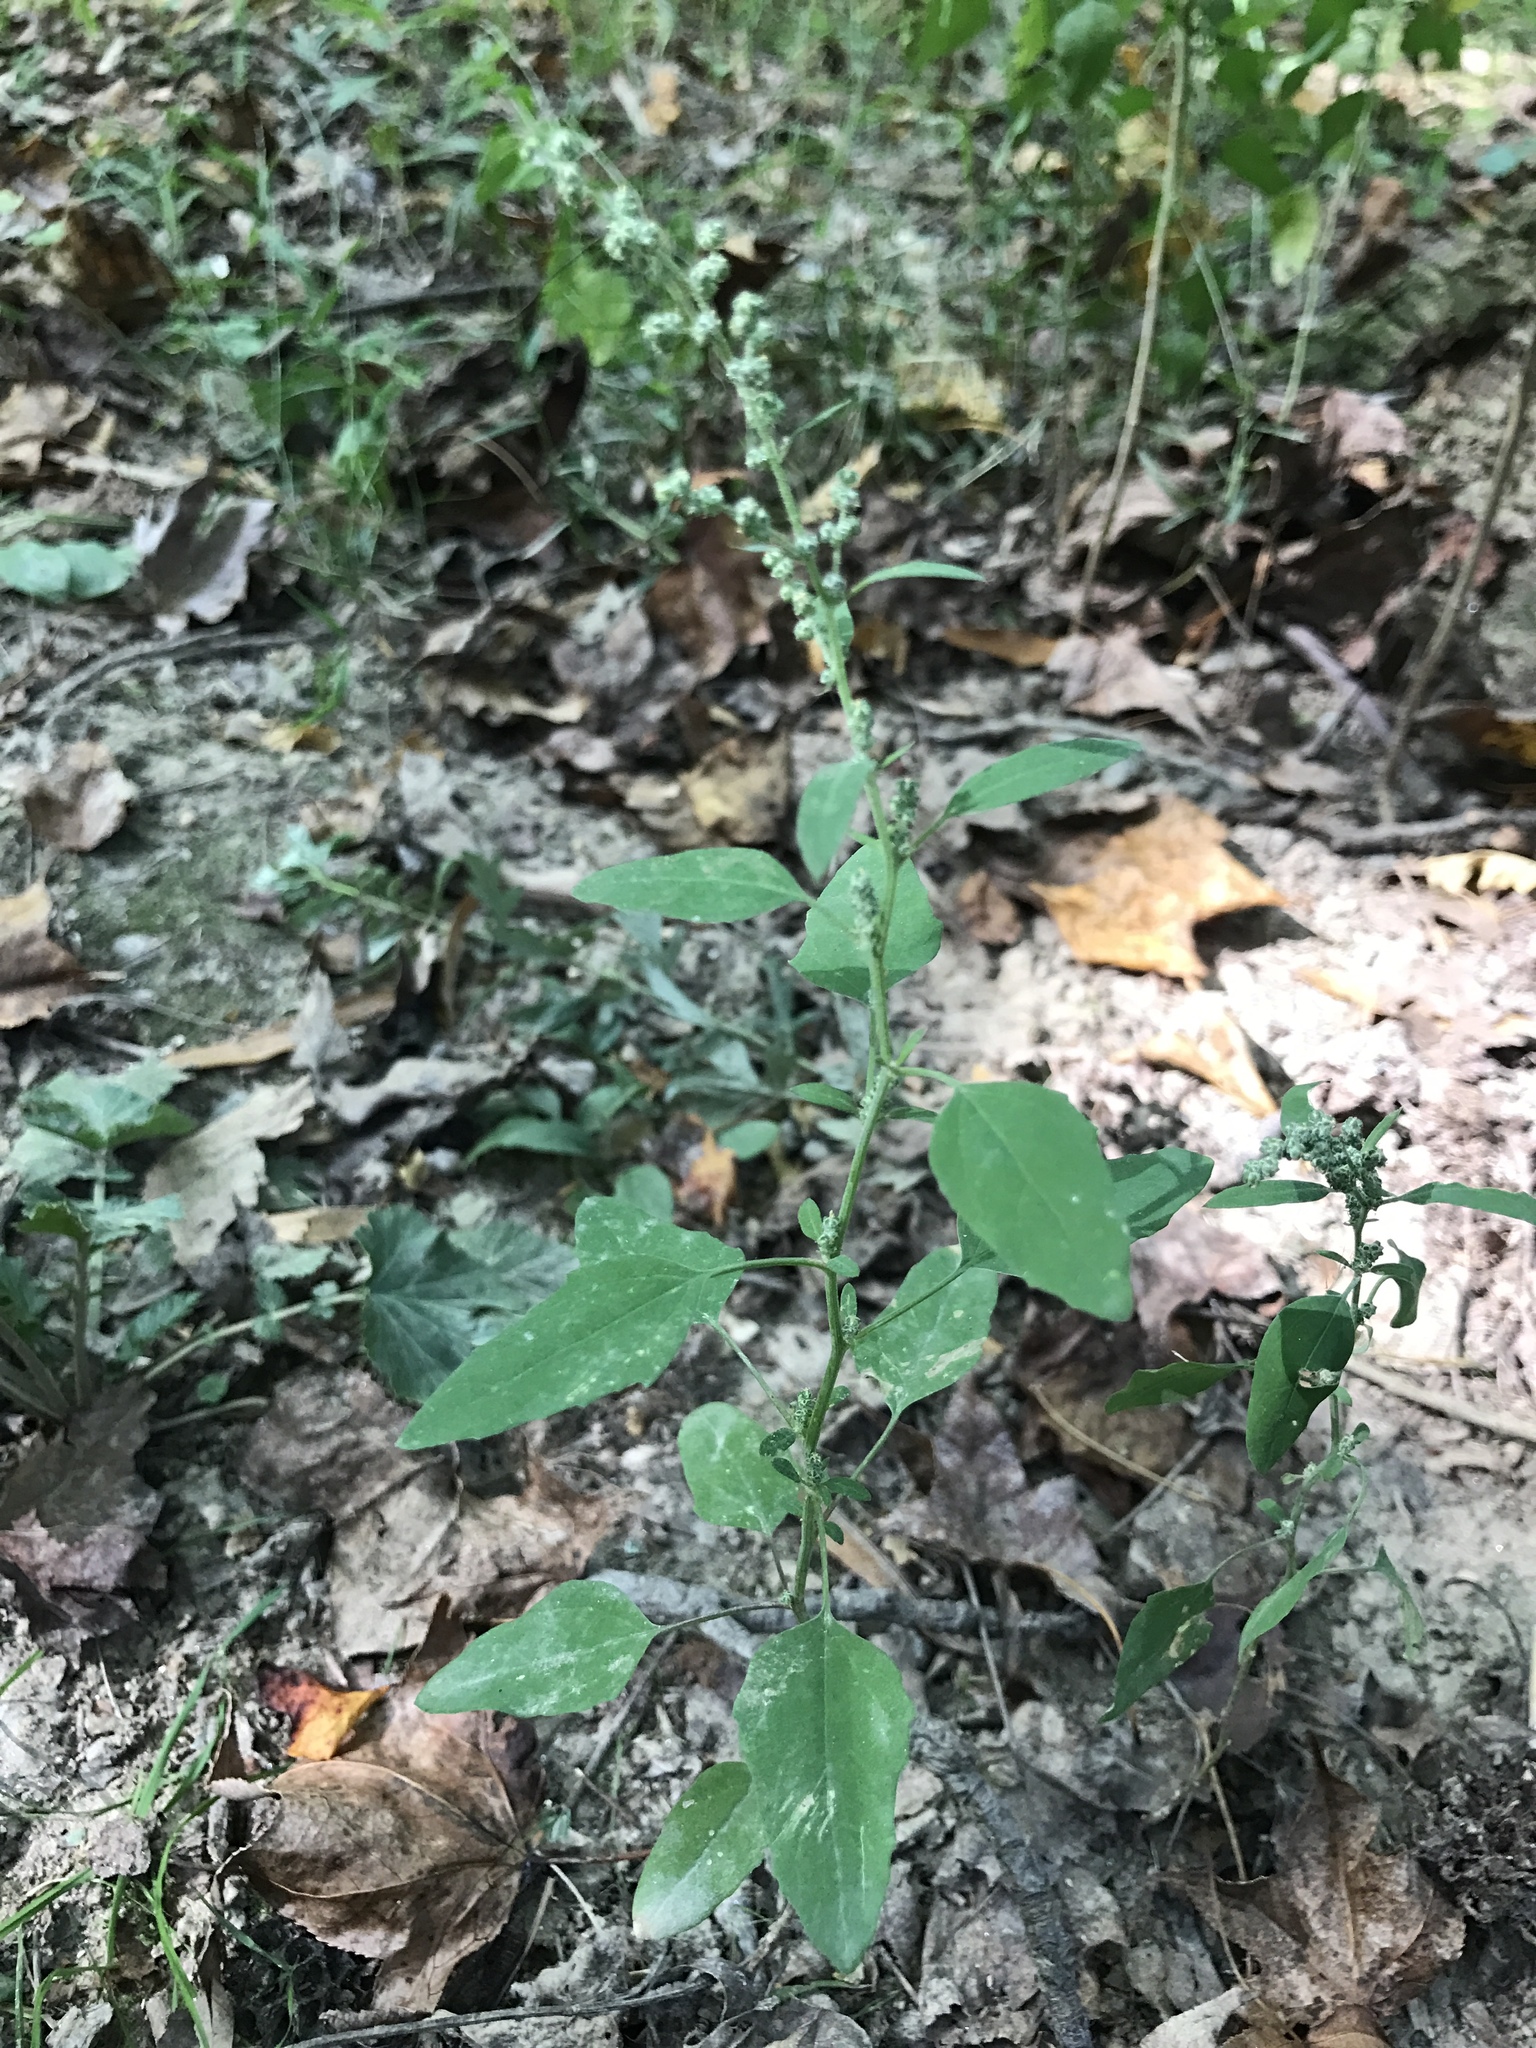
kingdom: Plantae
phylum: Tracheophyta
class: Magnoliopsida
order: Caryophyllales
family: Amaranthaceae
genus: Chenopodium
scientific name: Chenopodium album
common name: Fat-hen
